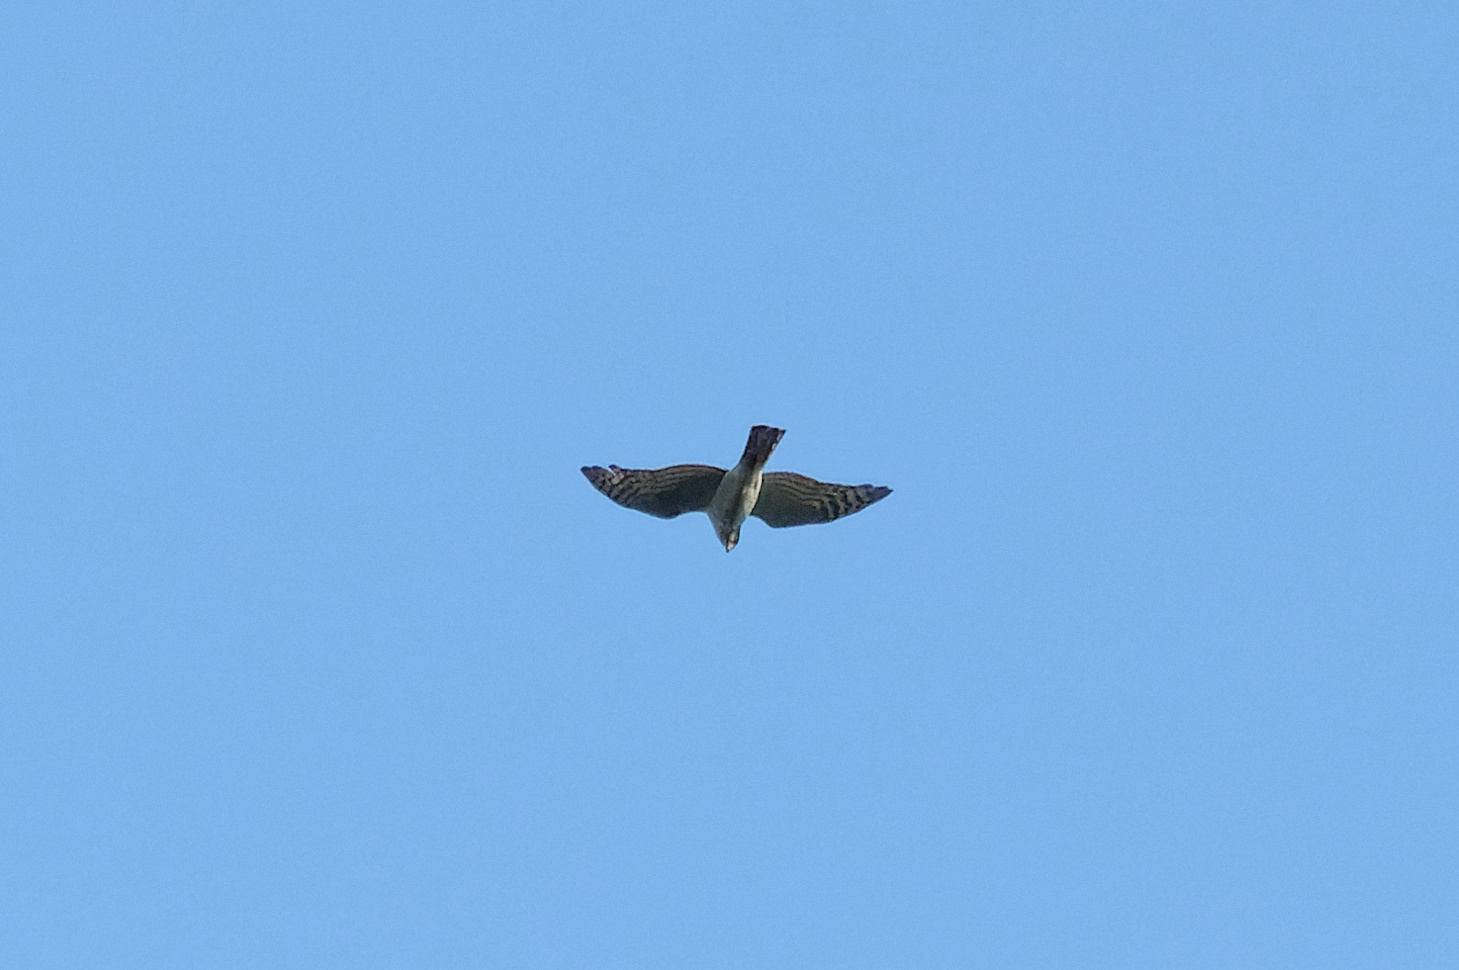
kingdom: Animalia
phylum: Chordata
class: Aves
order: Accipitriformes
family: Accipitridae
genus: Accipiter
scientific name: Accipiter nisus
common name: Eurasian sparrowhawk
